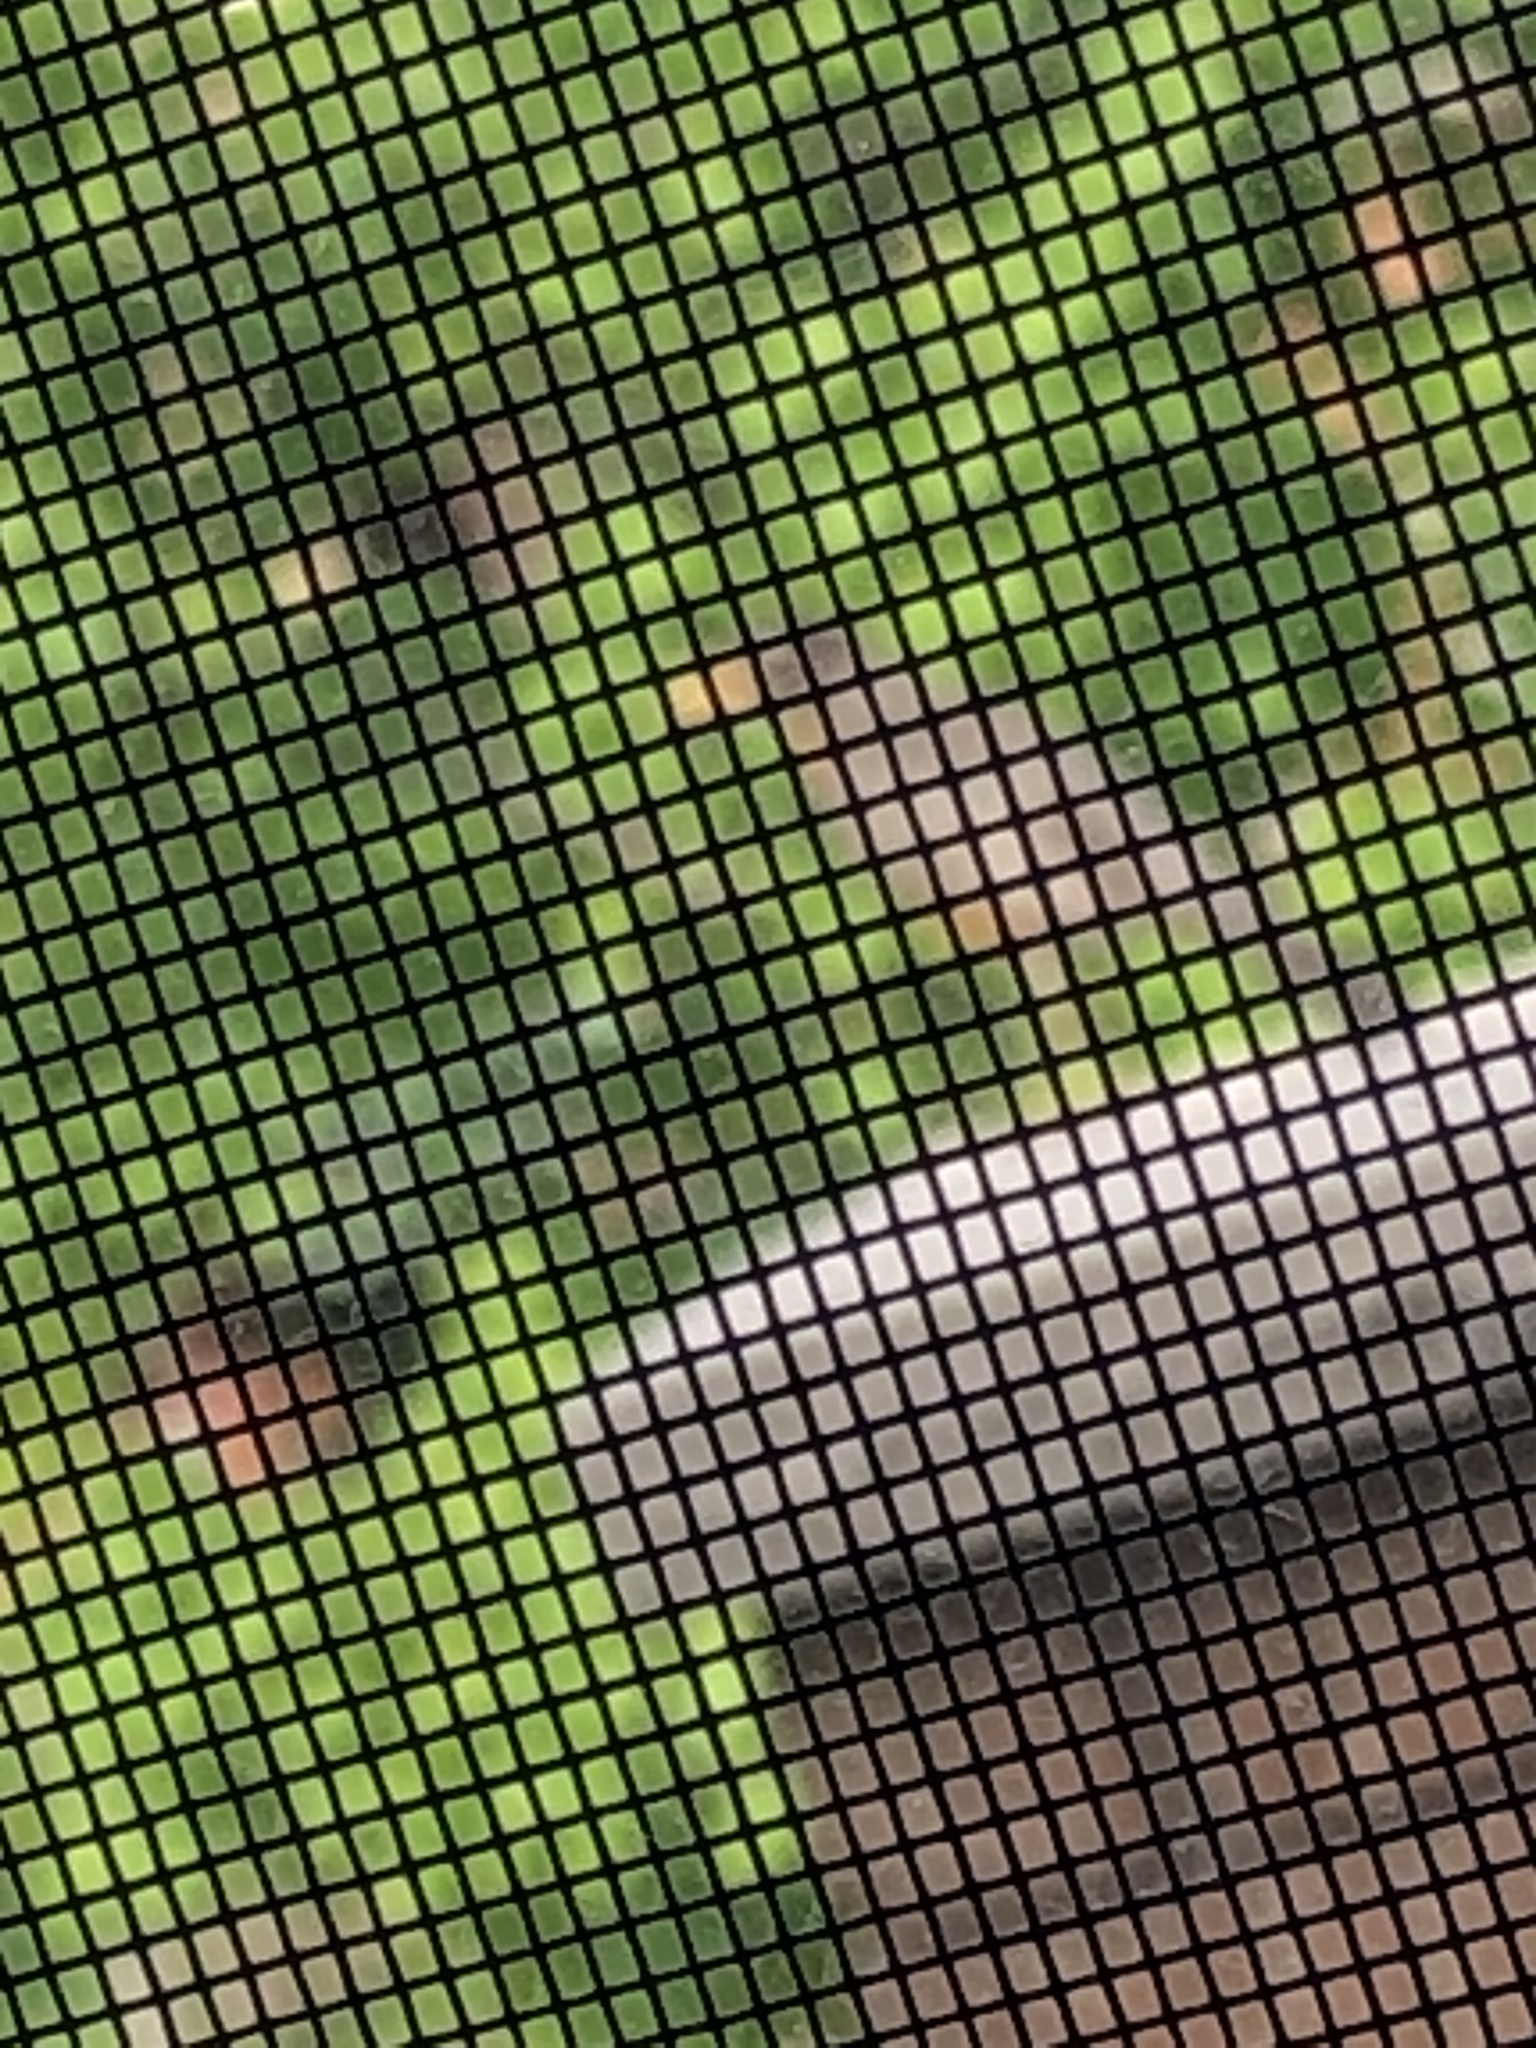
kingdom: Animalia
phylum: Chordata
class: Aves
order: Passeriformes
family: Turdidae
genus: Turdus
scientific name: Turdus migratorius
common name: American robin
